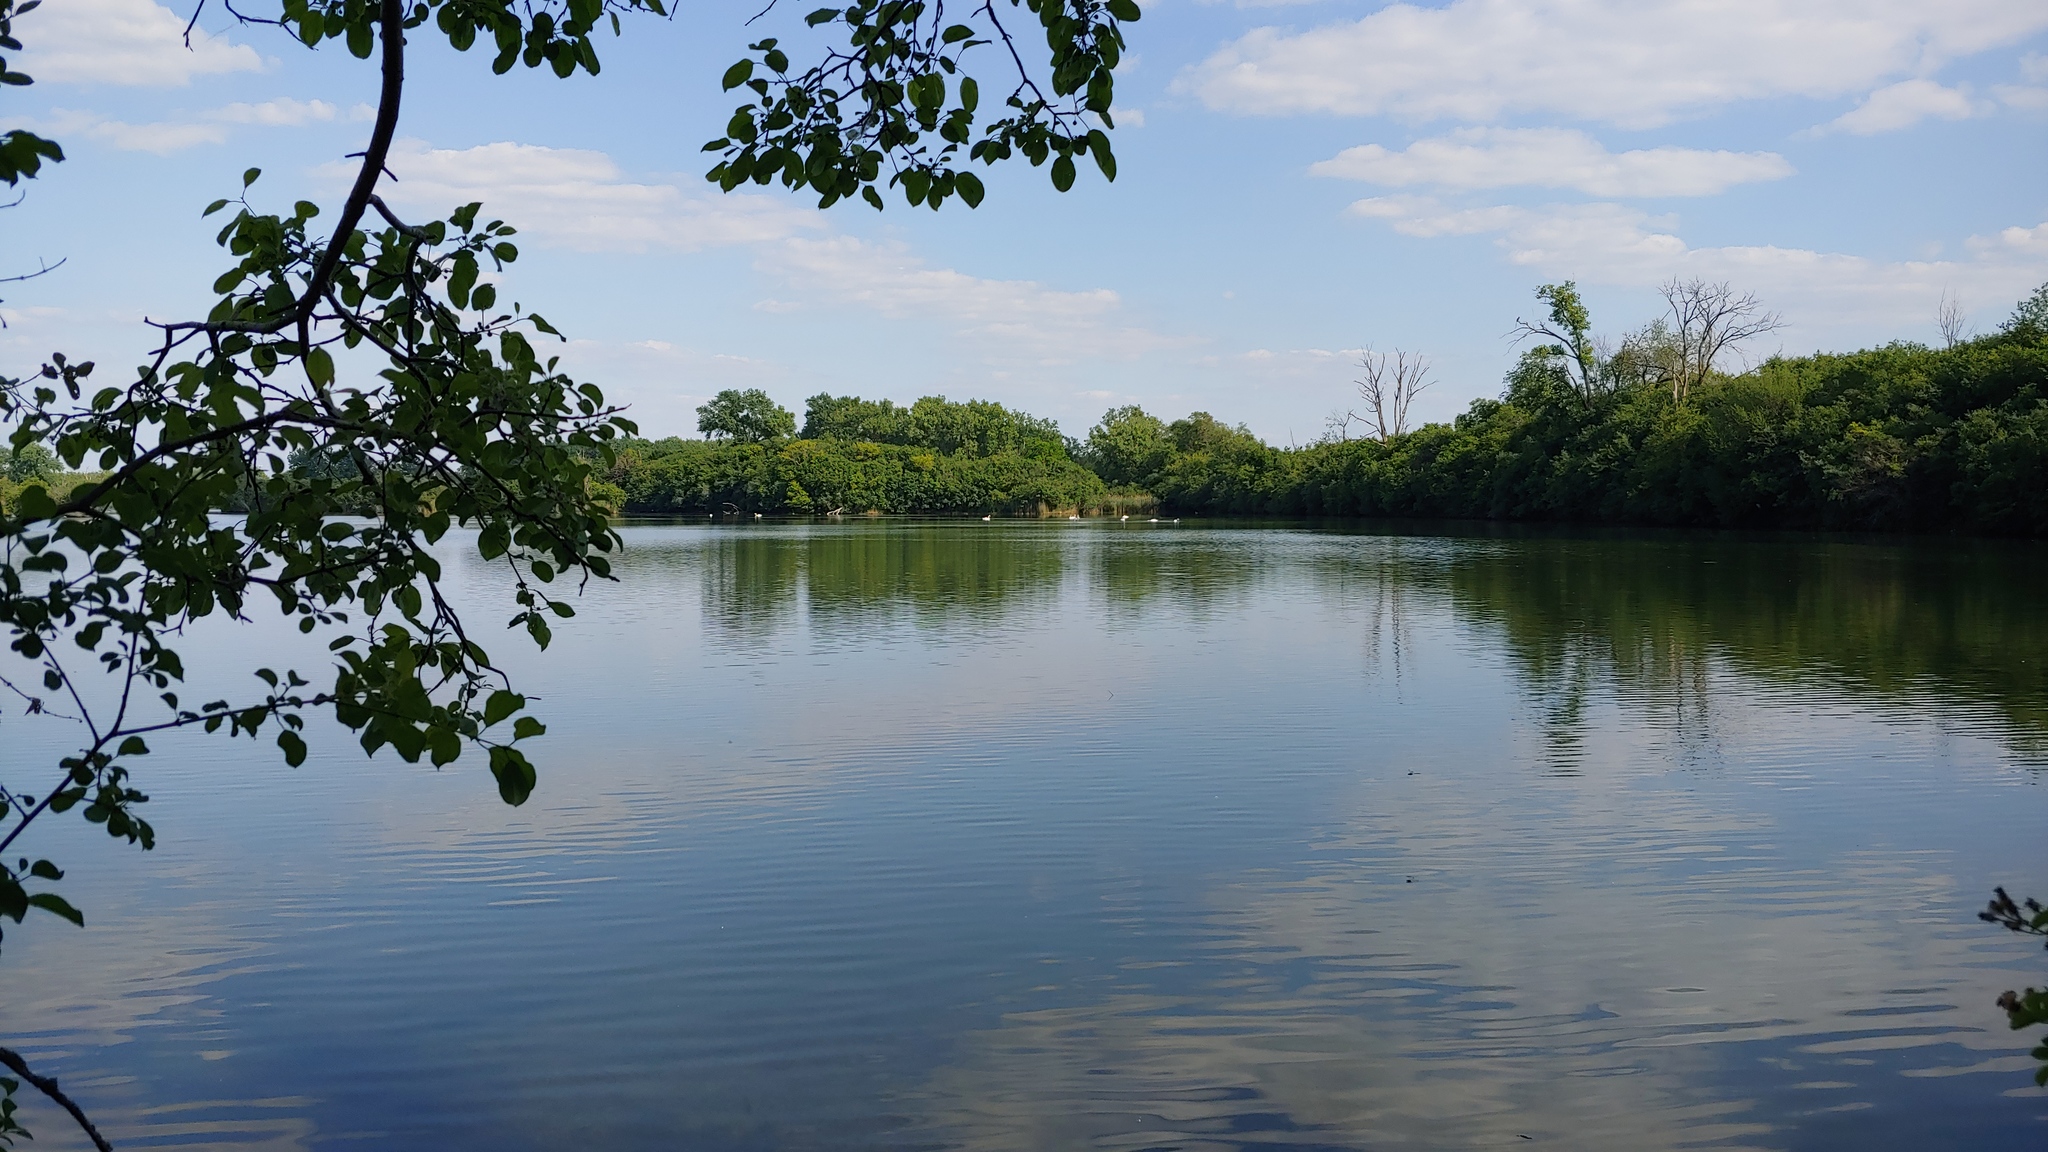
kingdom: Animalia
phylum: Chordata
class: Aves
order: Anseriformes
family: Anatidae
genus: Cygnus
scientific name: Cygnus olor
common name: Mute swan
